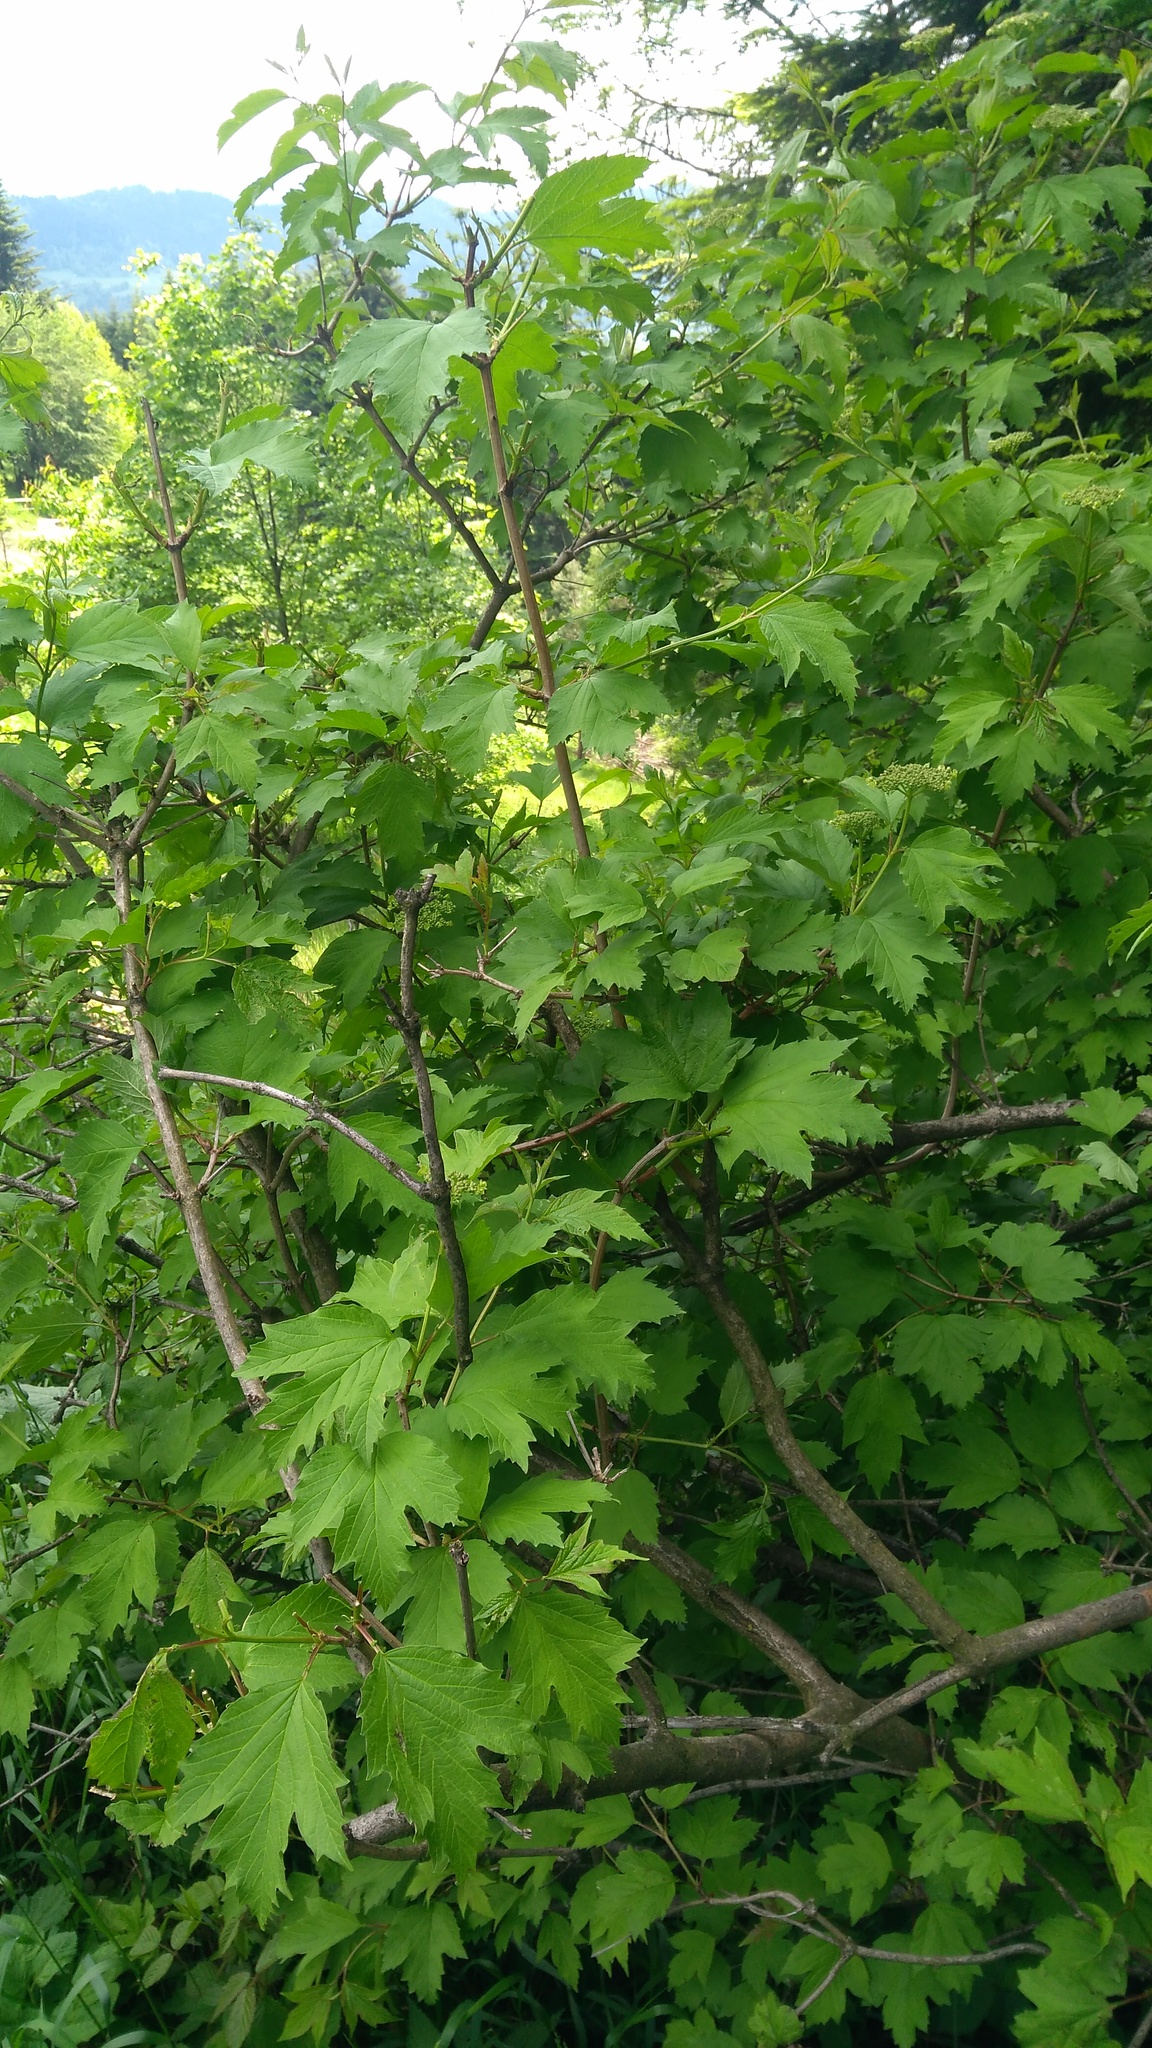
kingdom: Plantae
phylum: Tracheophyta
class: Magnoliopsida
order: Dipsacales
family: Viburnaceae
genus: Viburnum
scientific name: Viburnum opulus
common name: Guelder-rose
